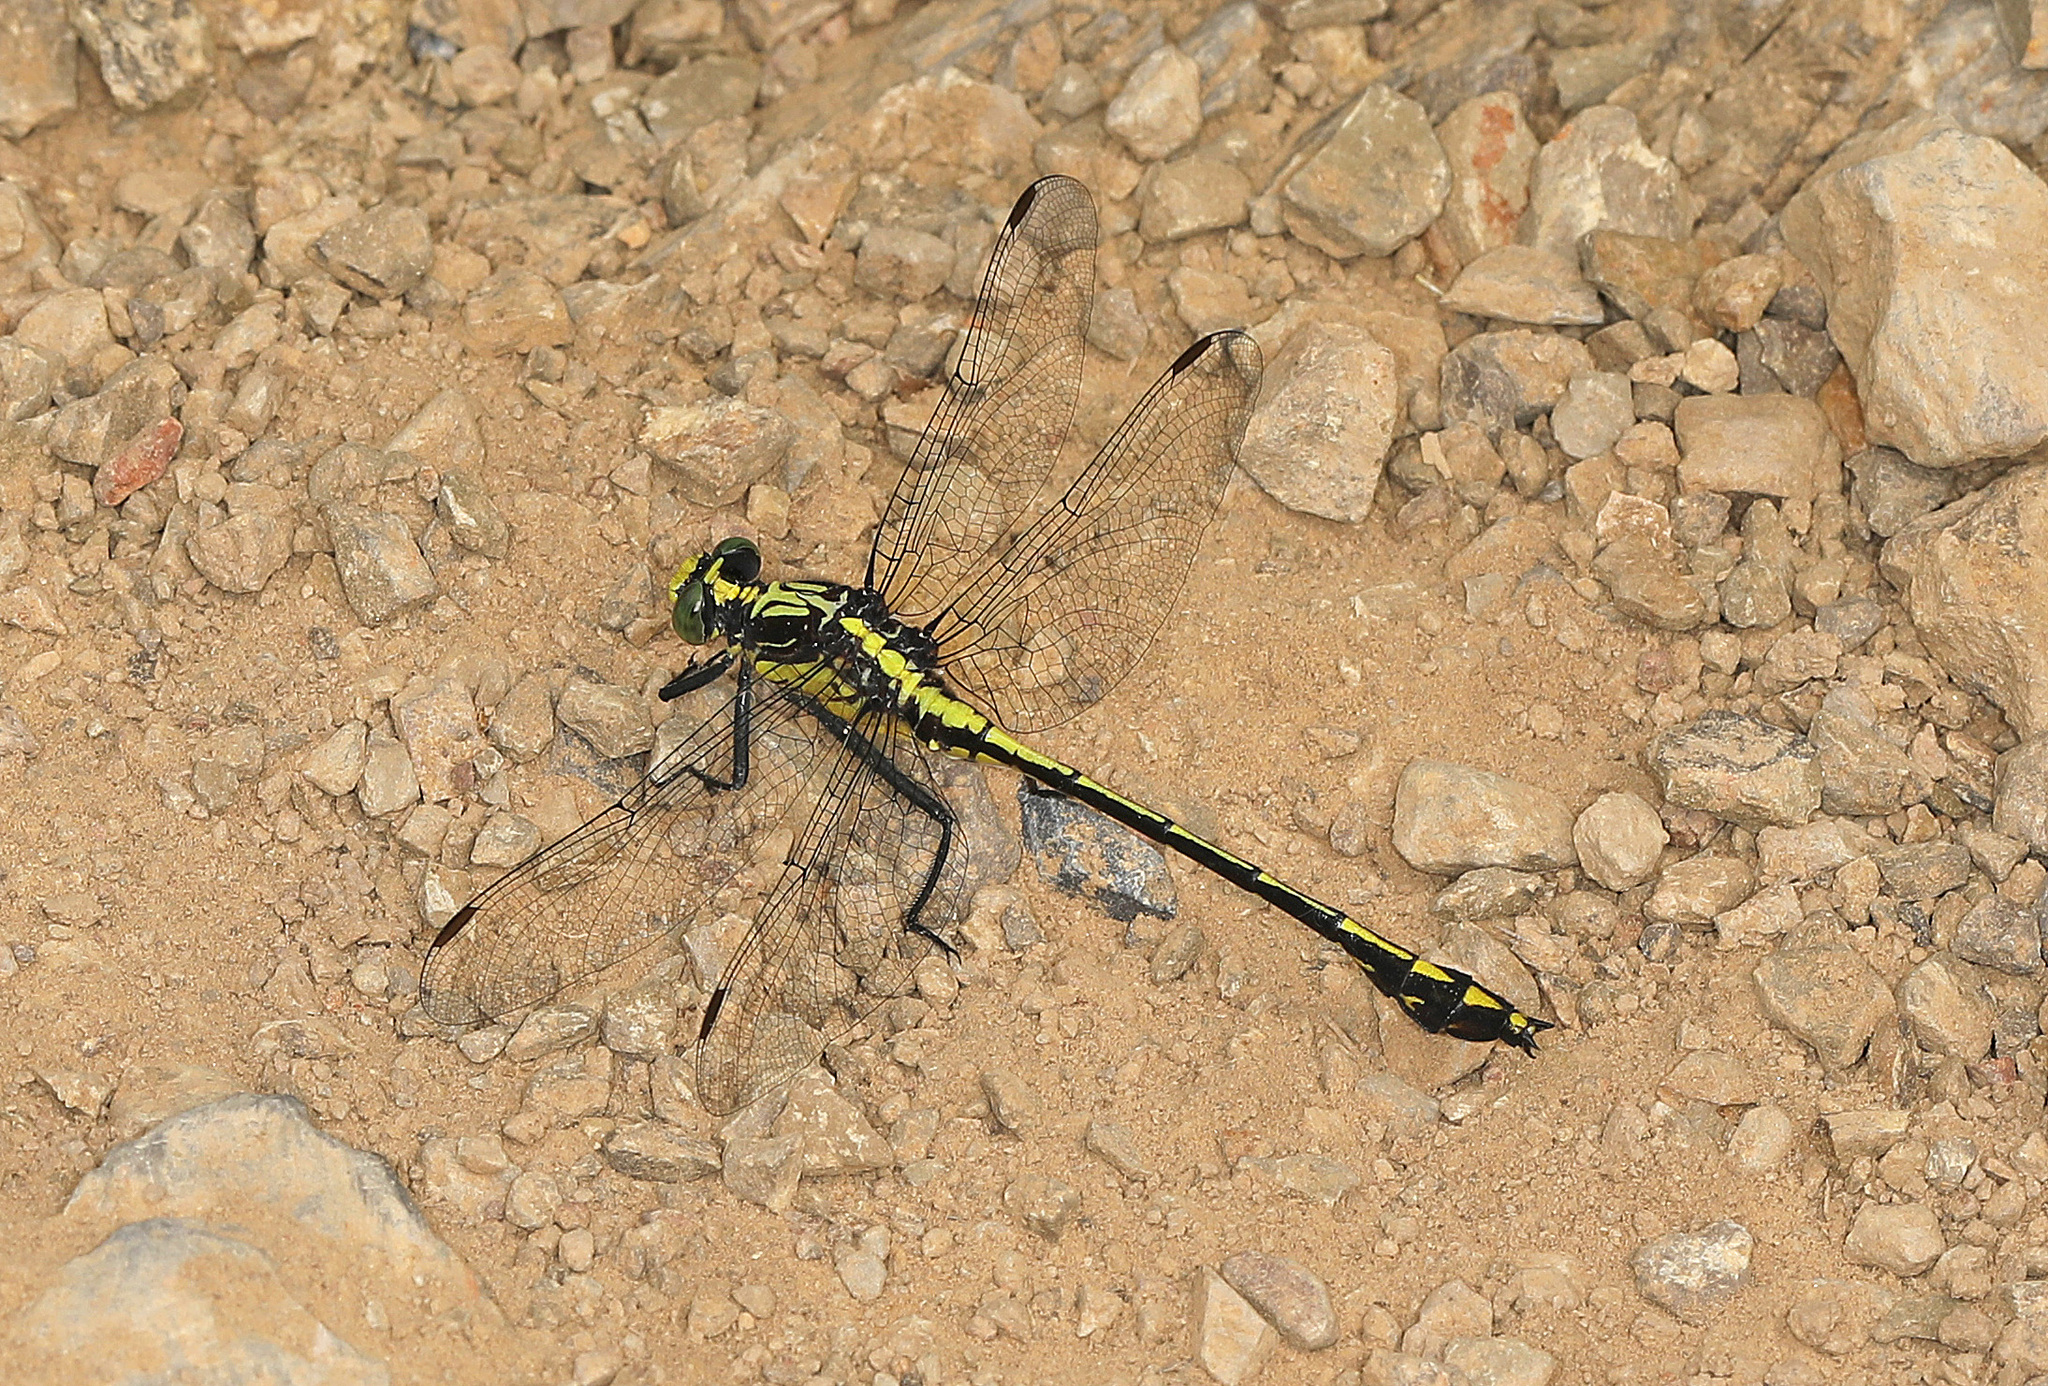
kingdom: Animalia
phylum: Arthropoda
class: Insecta
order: Odonata
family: Gomphidae
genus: Dromogomphus
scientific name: Dromogomphus spinosus
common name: Black-shouldered spinyleg
